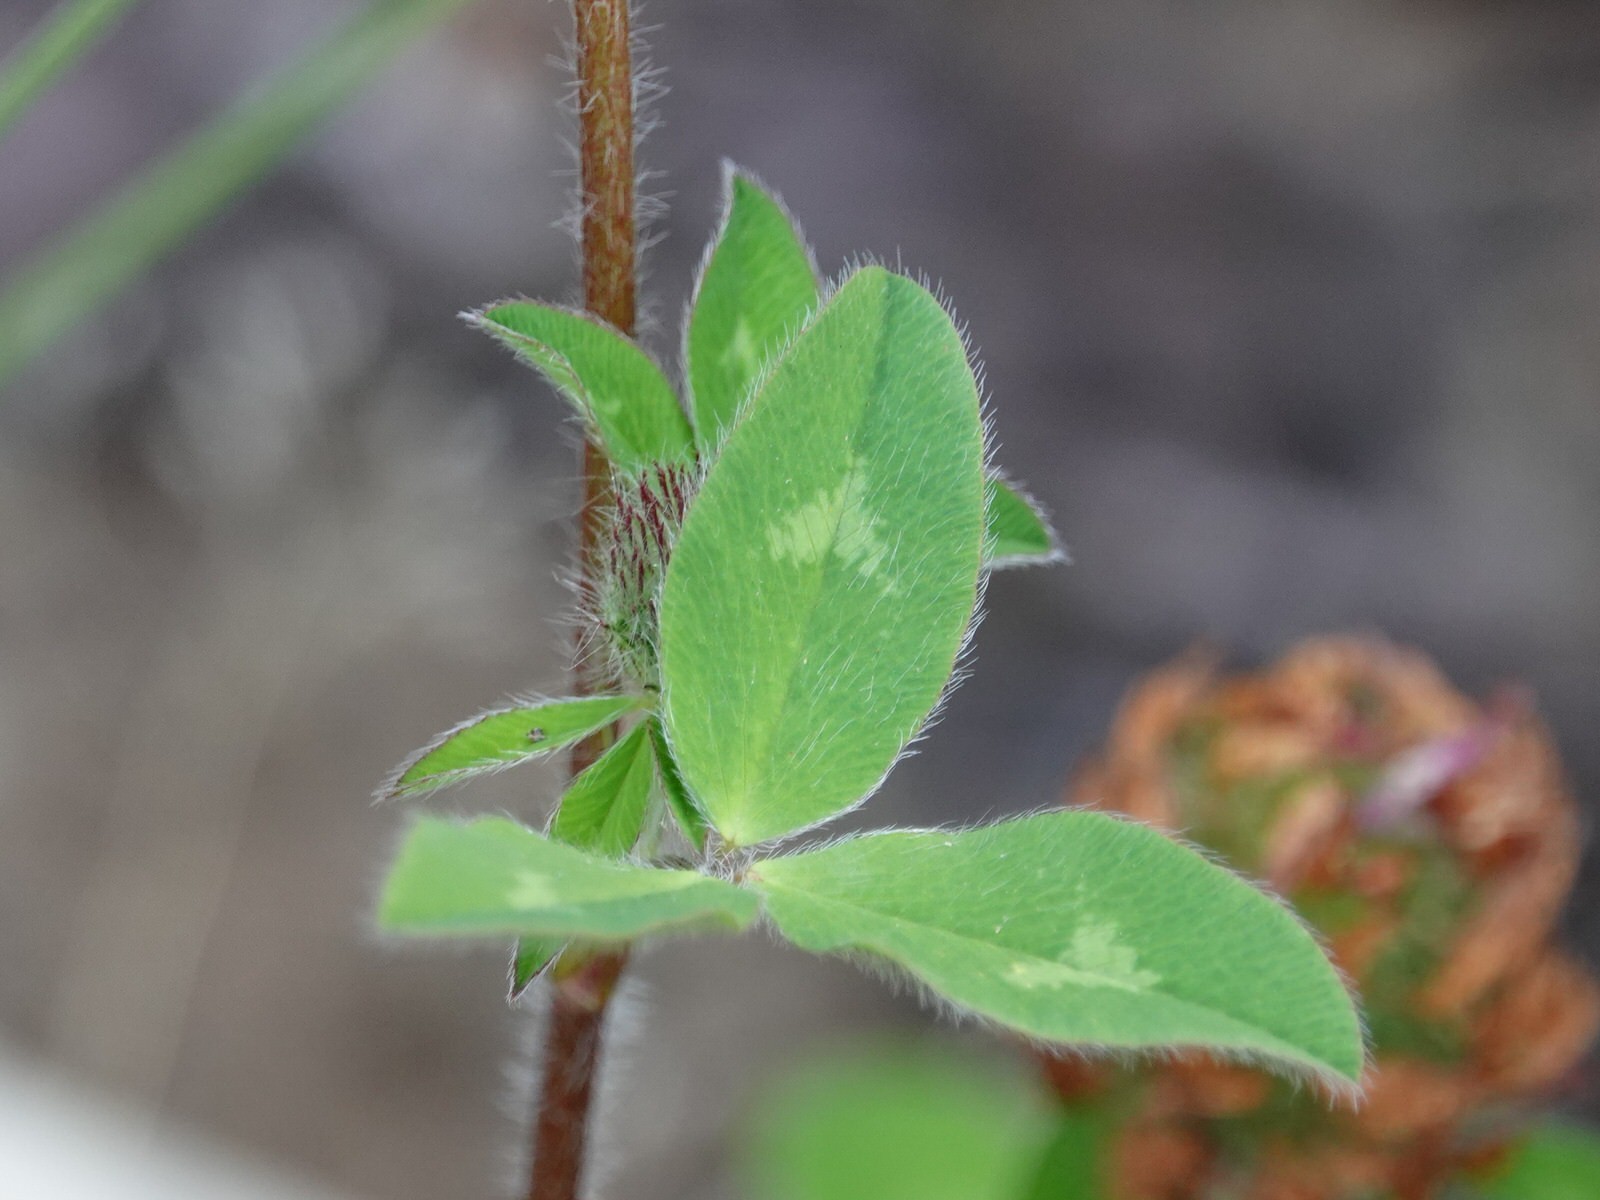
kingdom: Plantae
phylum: Tracheophyta
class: Magnoliopsida
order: Fabales
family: Fabaceae
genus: Trifolium
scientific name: Trifolium pratense
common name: Red clover
